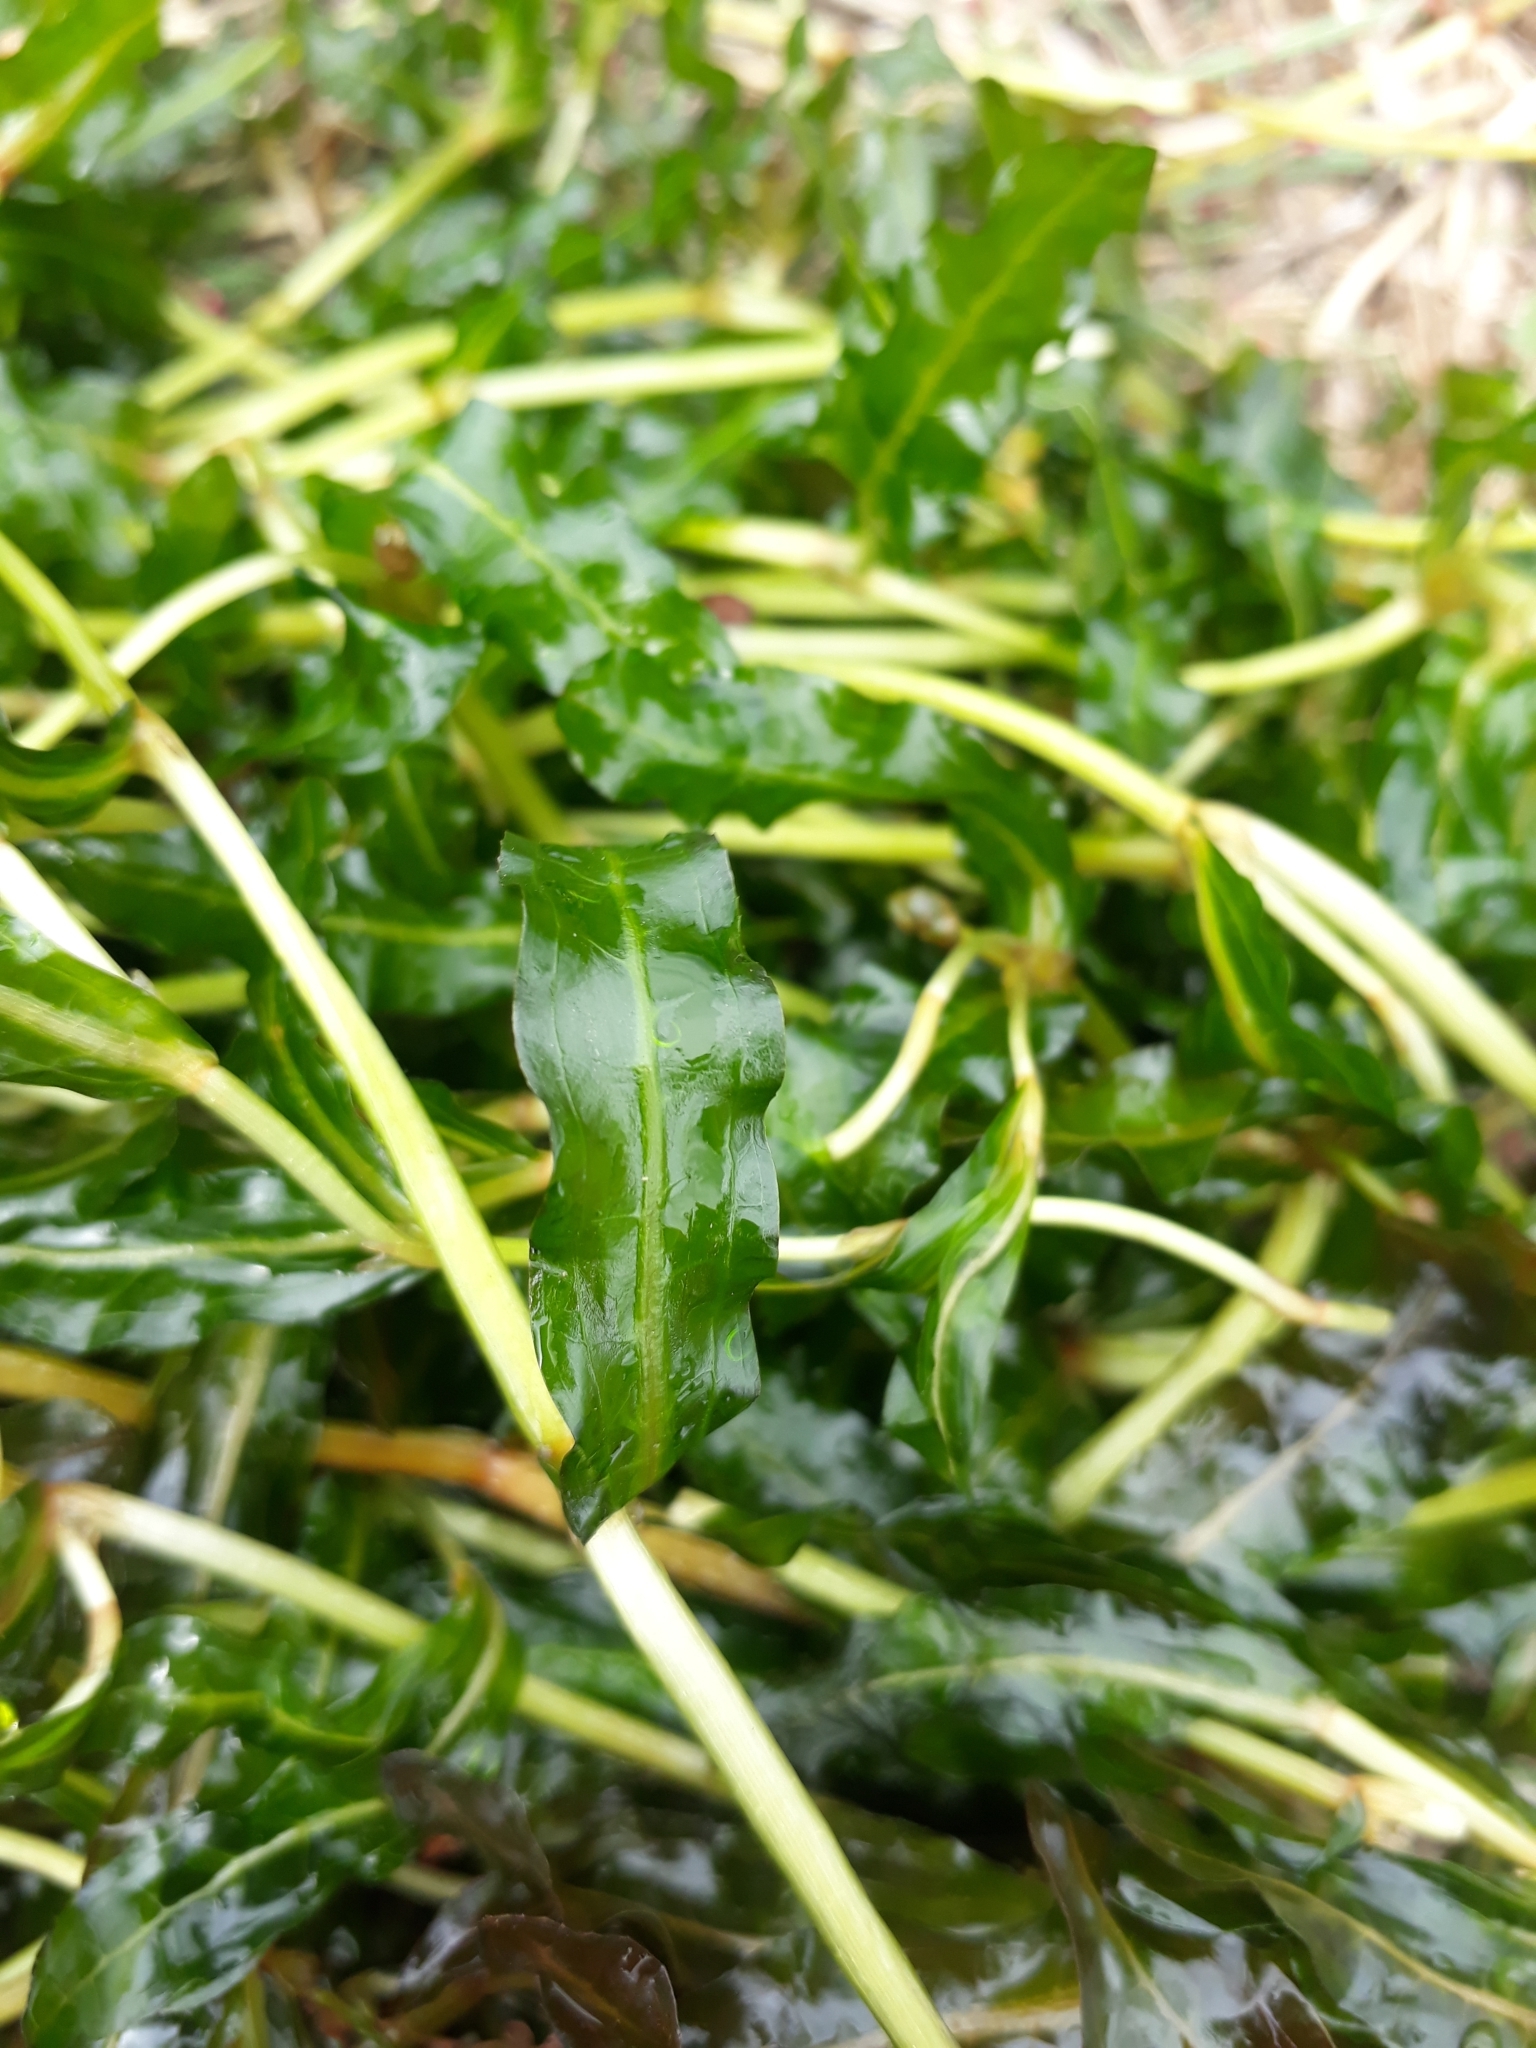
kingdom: Plantae
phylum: Tracheophyta
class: Liliopsida
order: Alismatales
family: Potamogetonaceae
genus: Potamogeton
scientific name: Potamogeton crispus
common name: Curled pondweed
